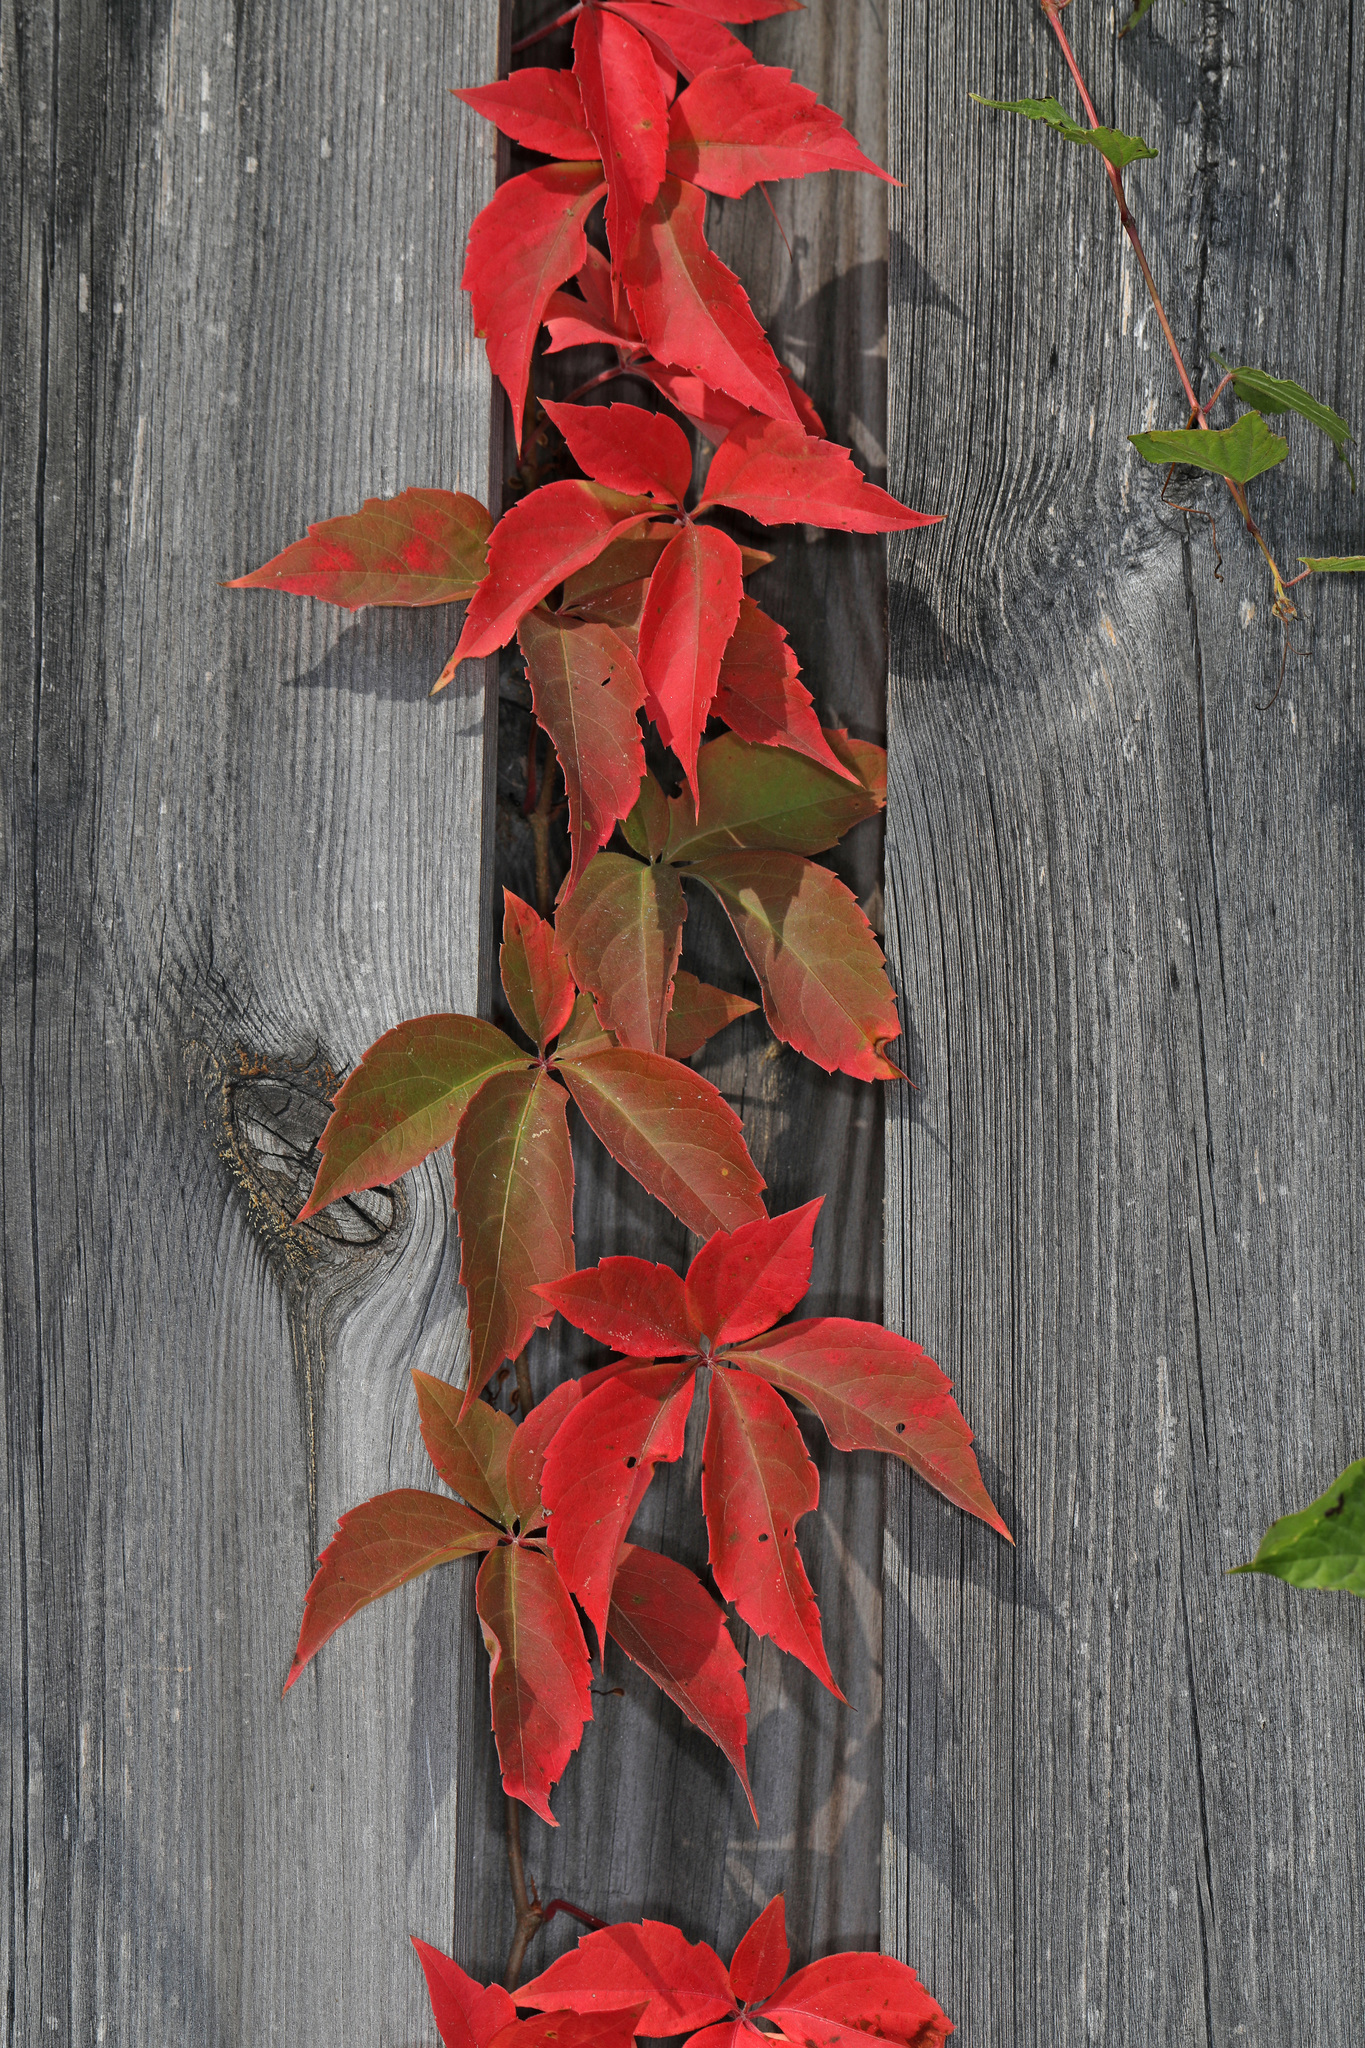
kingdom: Plantae
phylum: Tracheophyta
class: Magnoliopsida
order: Vitales
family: Vitaceae
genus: Parthenocissus
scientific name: Parthenocissus quinquefolia
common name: Virginia-creeper
